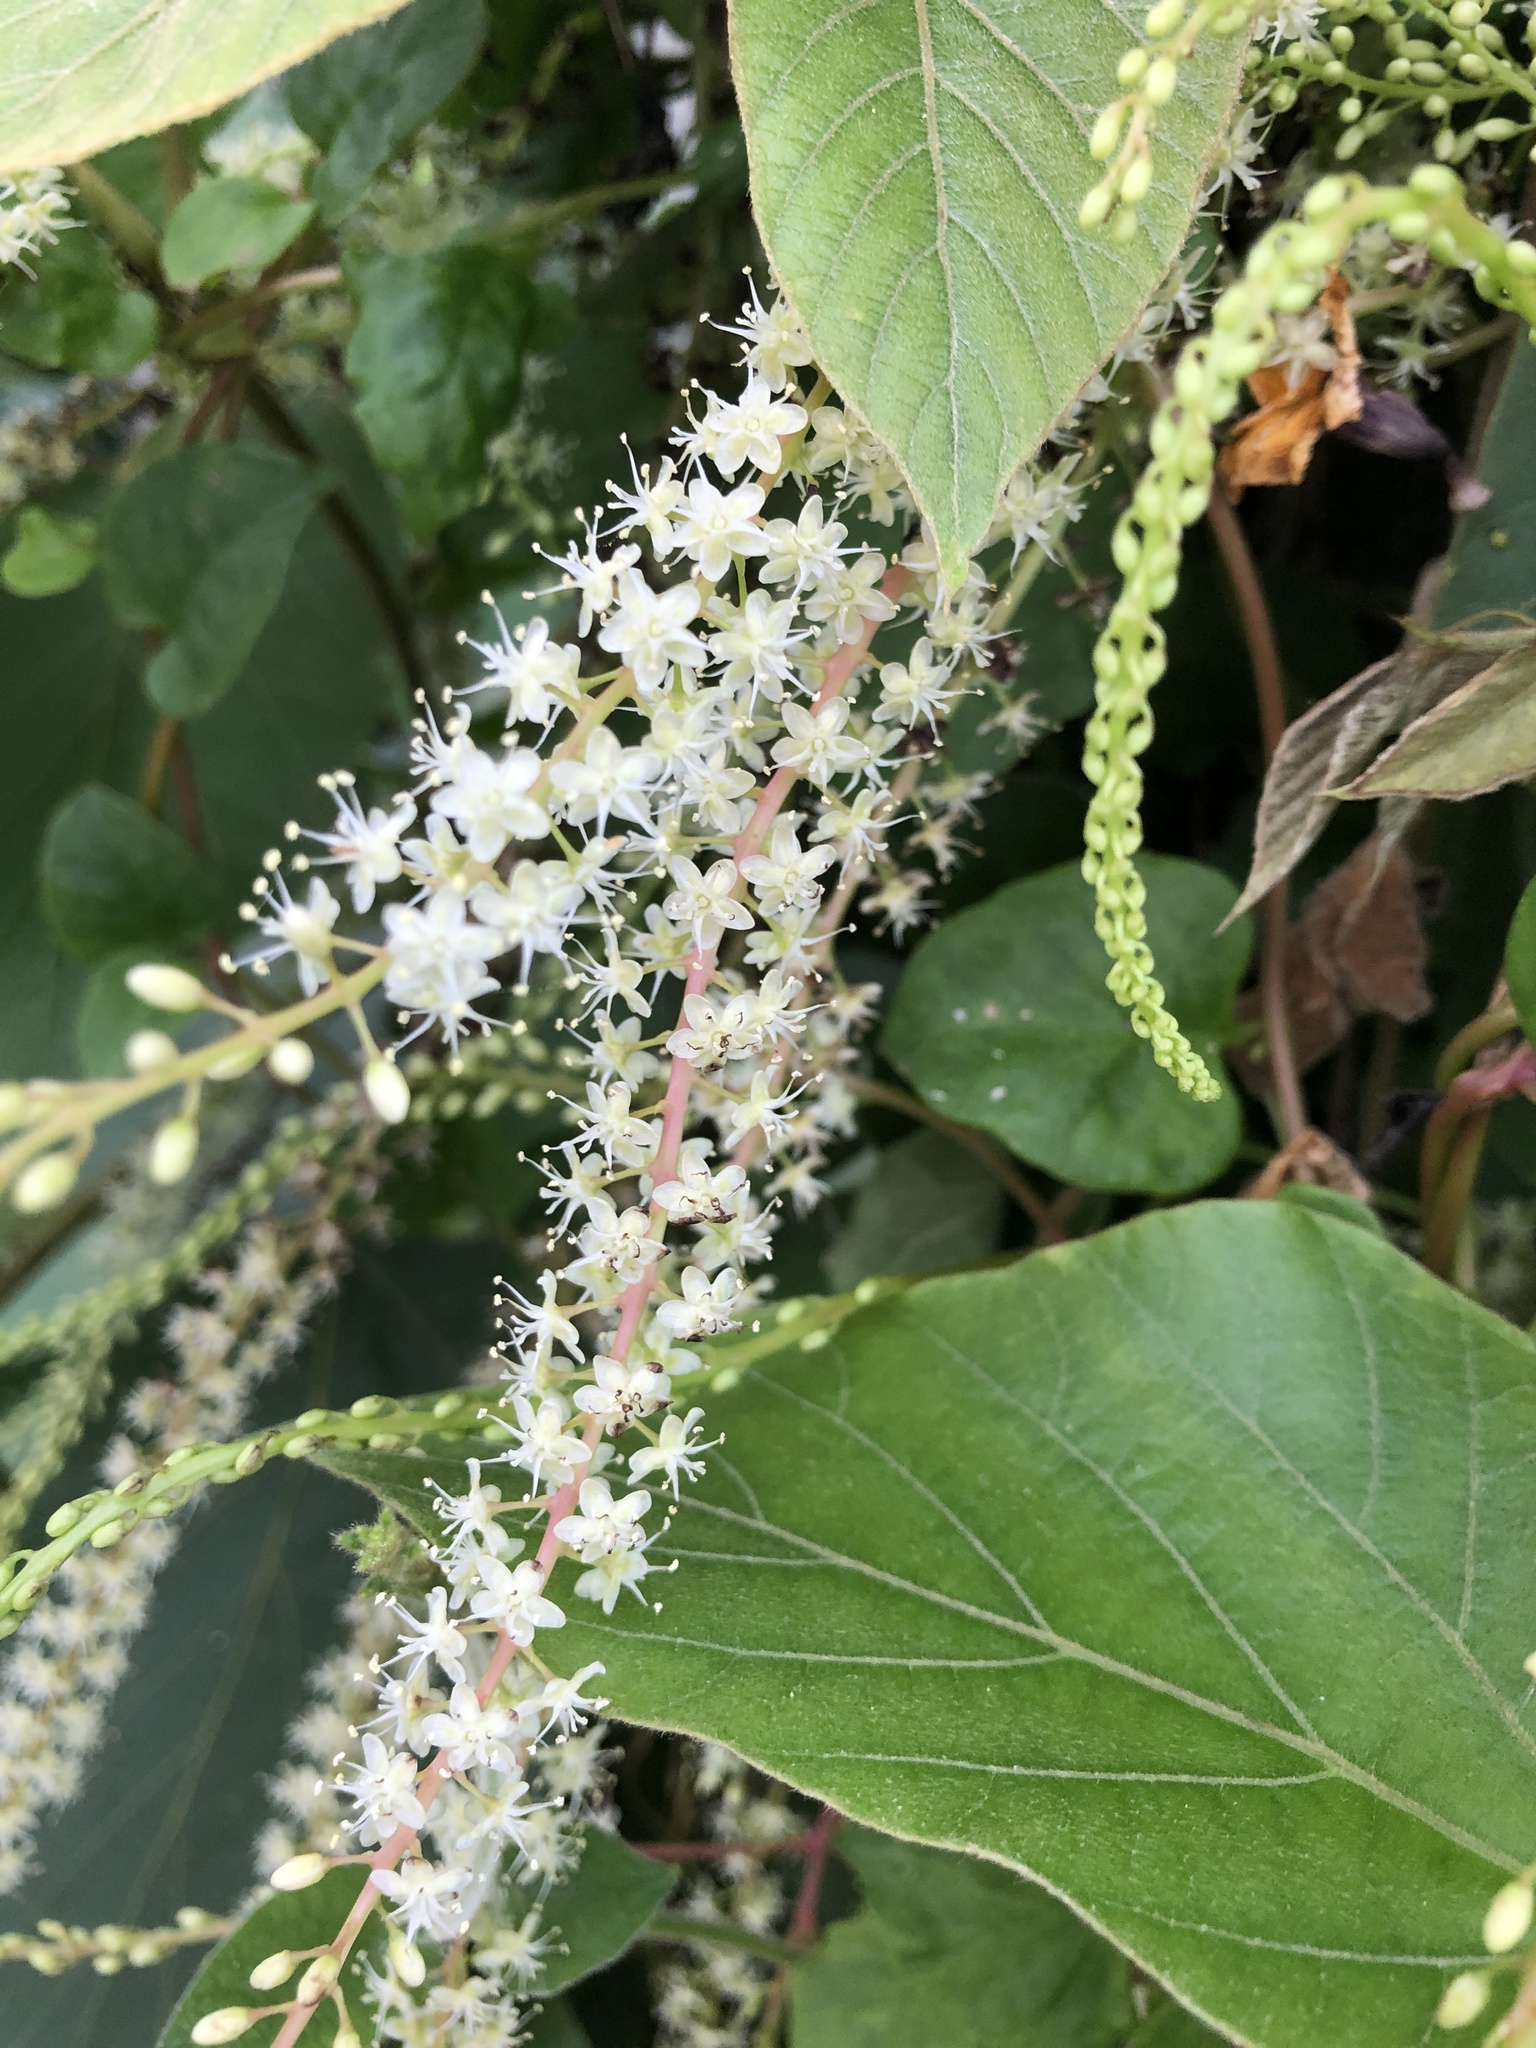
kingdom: Plantae
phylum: Tracheophyta
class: Magnoliopsida
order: Caryophyllales
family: Basellaceae
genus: Anredera
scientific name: Anredera cordifolia
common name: Heartleaf madeiravine
